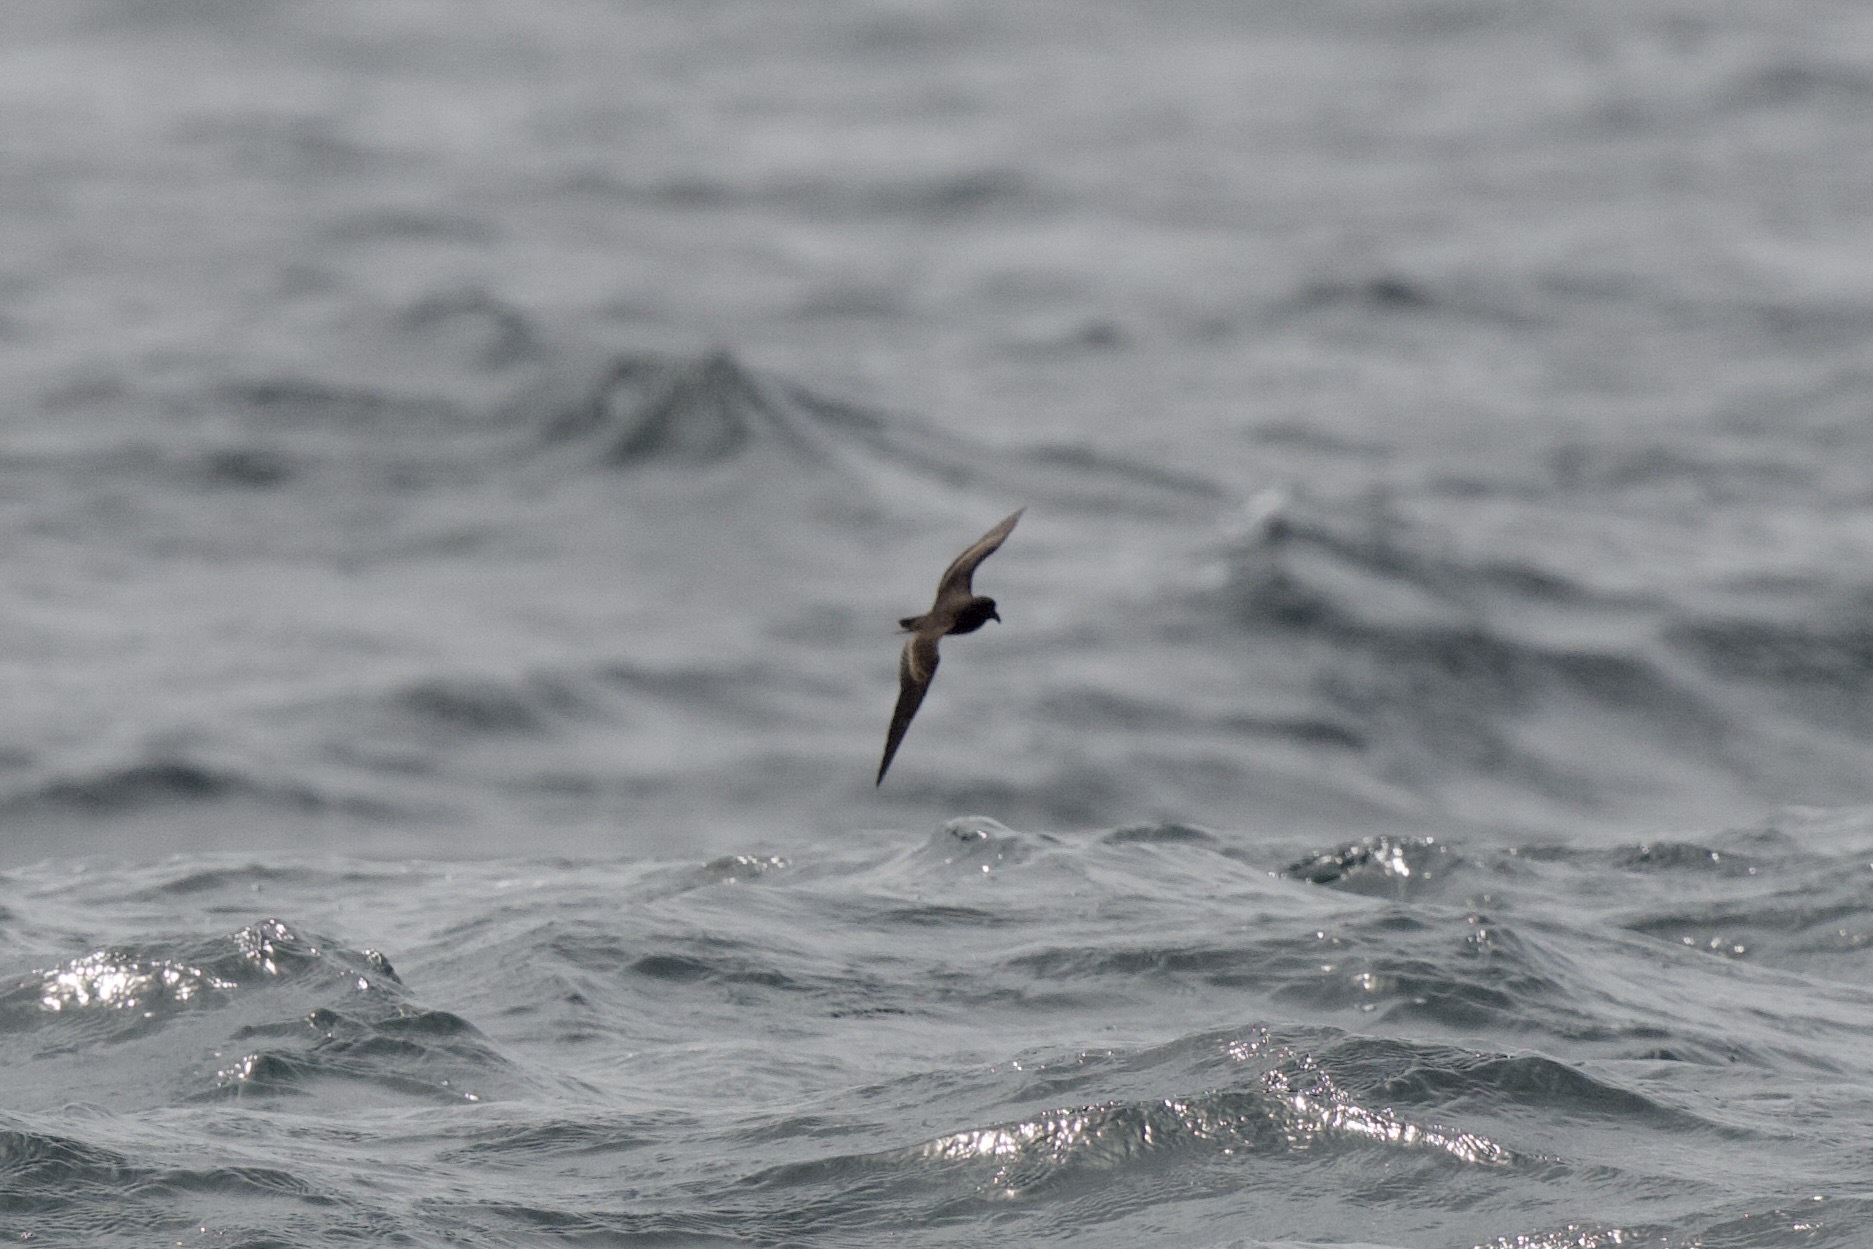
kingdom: Animalia
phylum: Chordata
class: Aves
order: Procellariiformes
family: Hydrobatidae
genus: Hydrobates
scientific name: Hydrobates melania
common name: Black storm petrel
